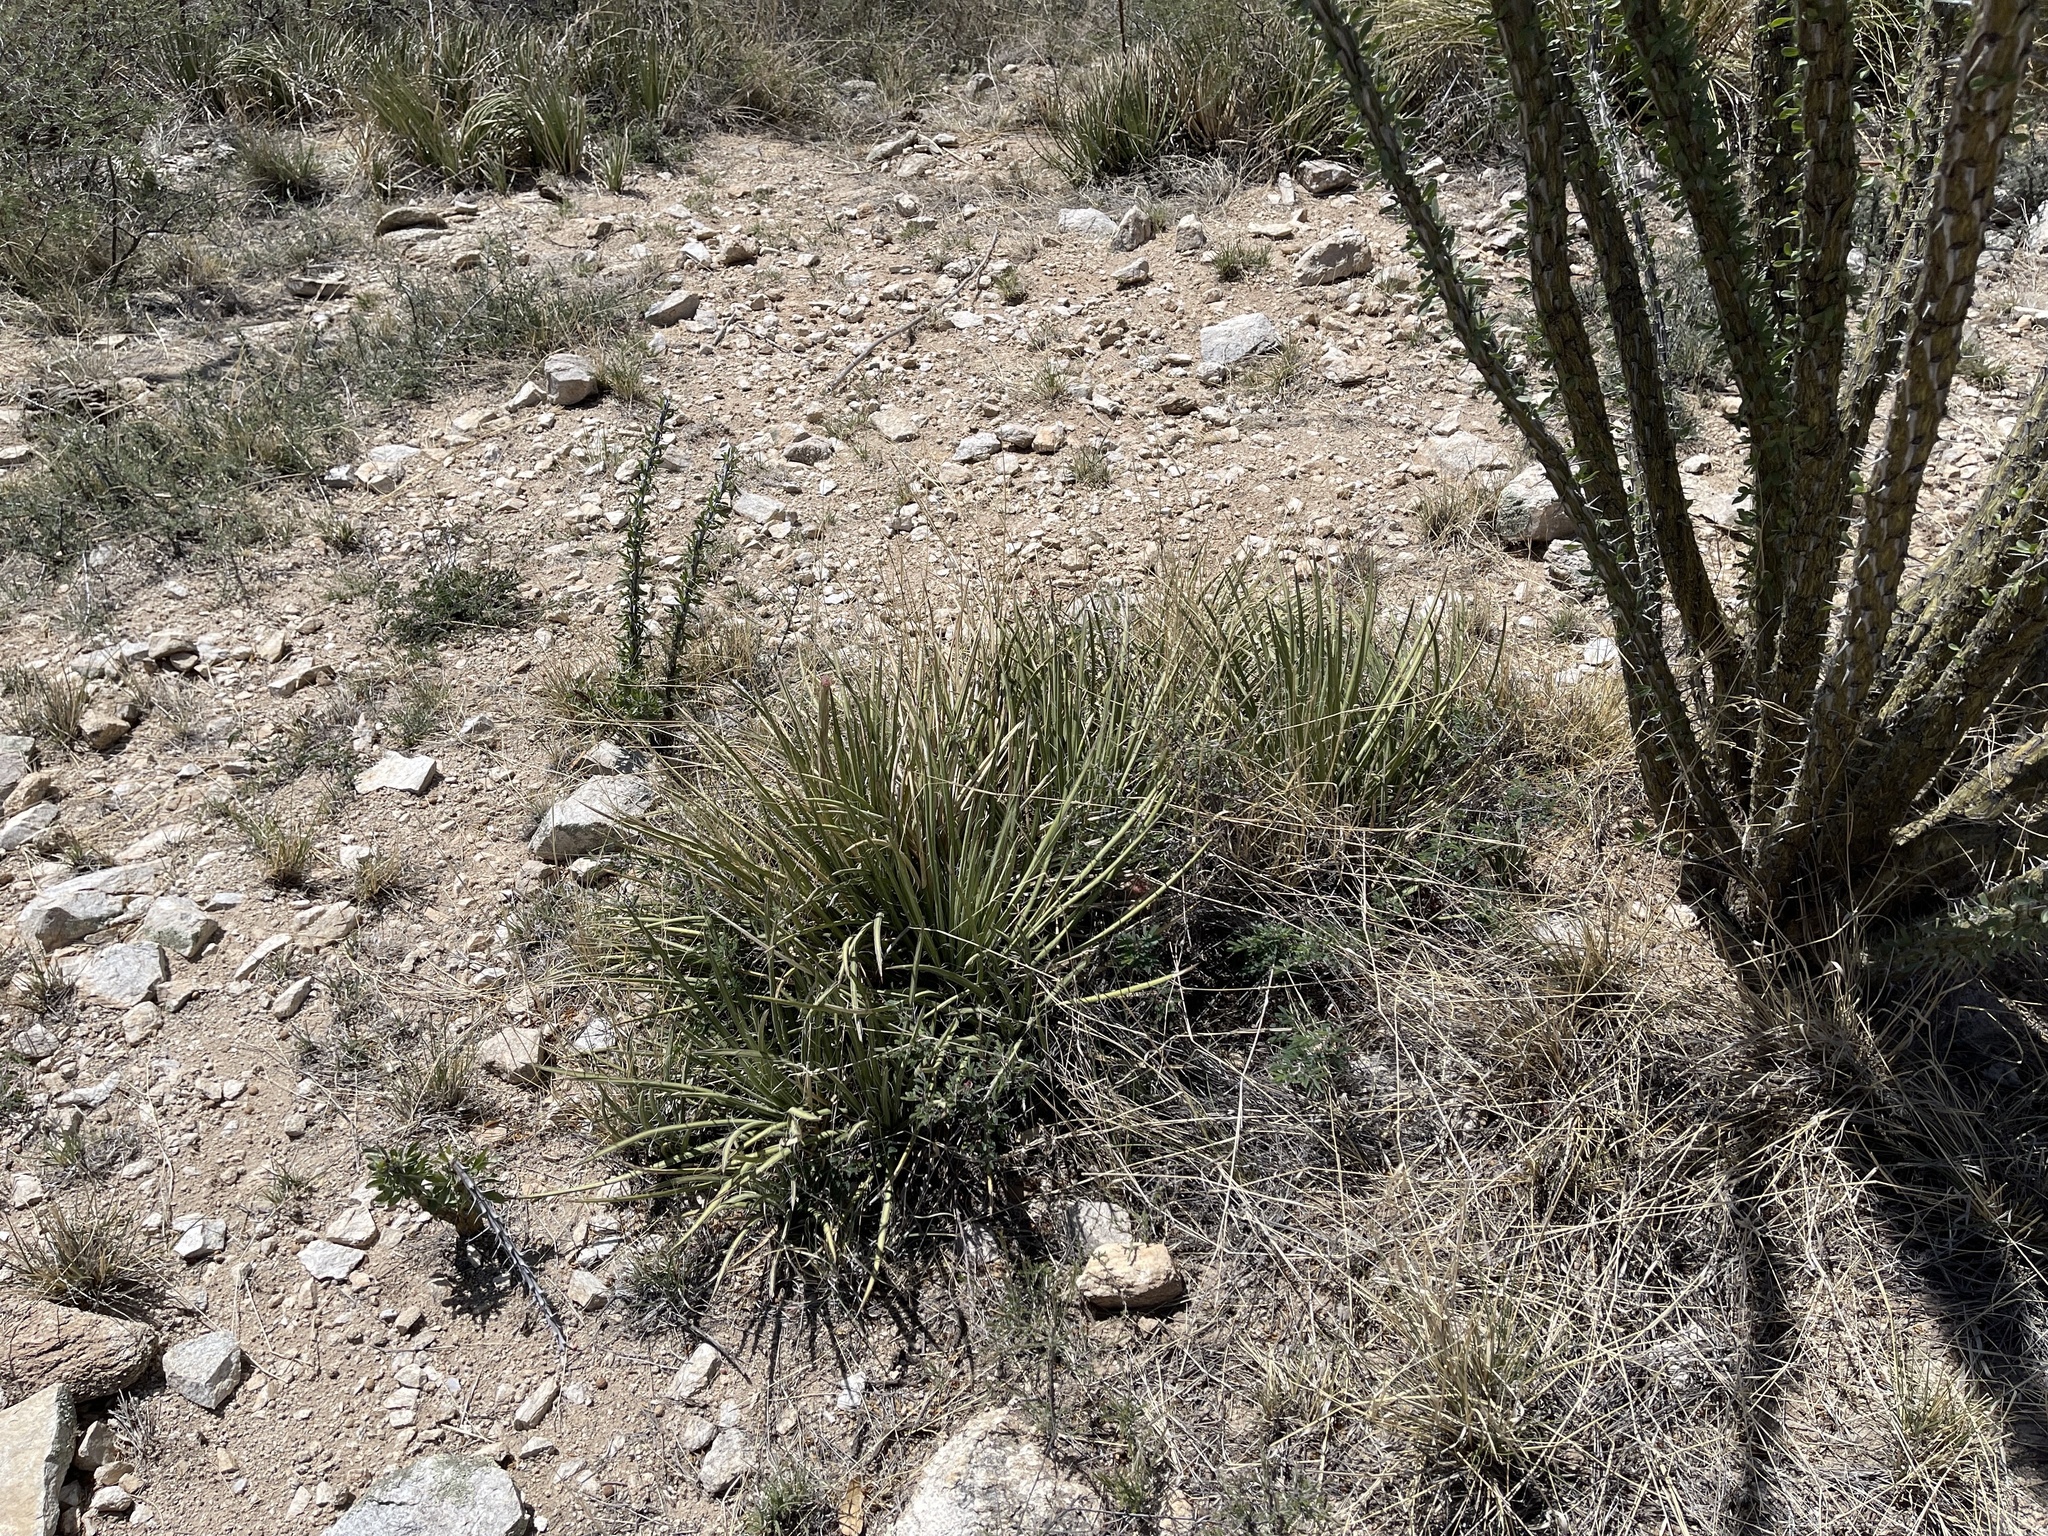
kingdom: Plantae
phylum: Tracheophyta
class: Liliopsida
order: Asparagales
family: Asparagaceae
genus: Agave
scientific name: Agave schottii
